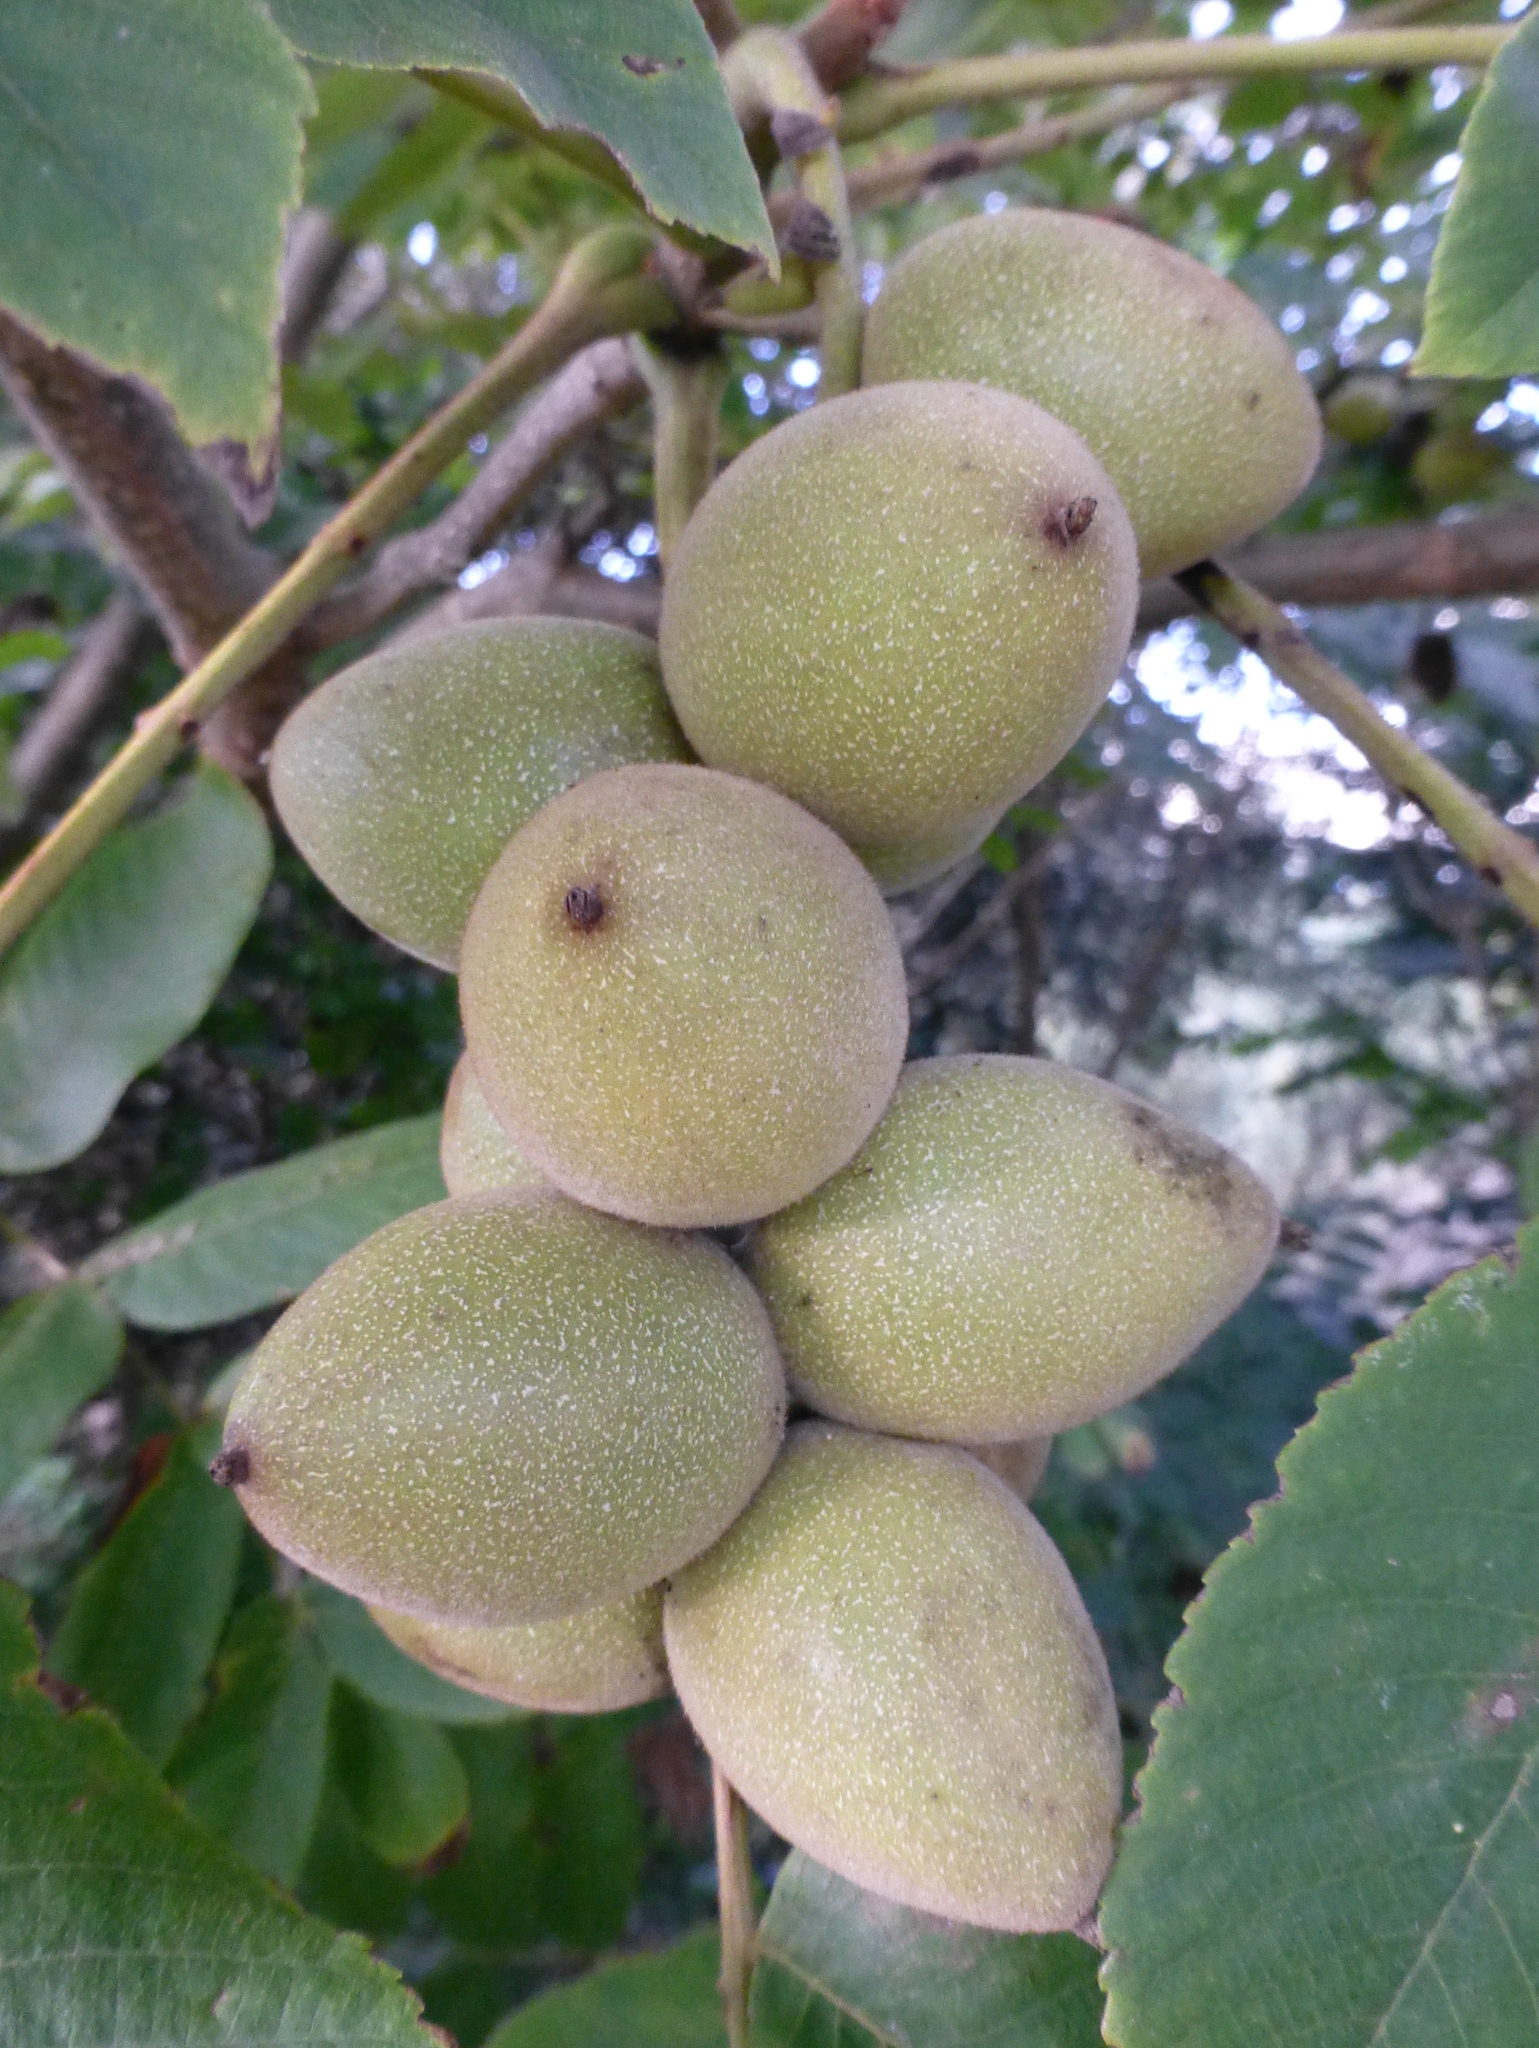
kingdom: Plantae
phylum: Tracheophyta
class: Magnoliopsida
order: Fagales
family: Juglandaceae
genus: Juglans
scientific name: Juglans ailantifolia
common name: Japanese walnut
